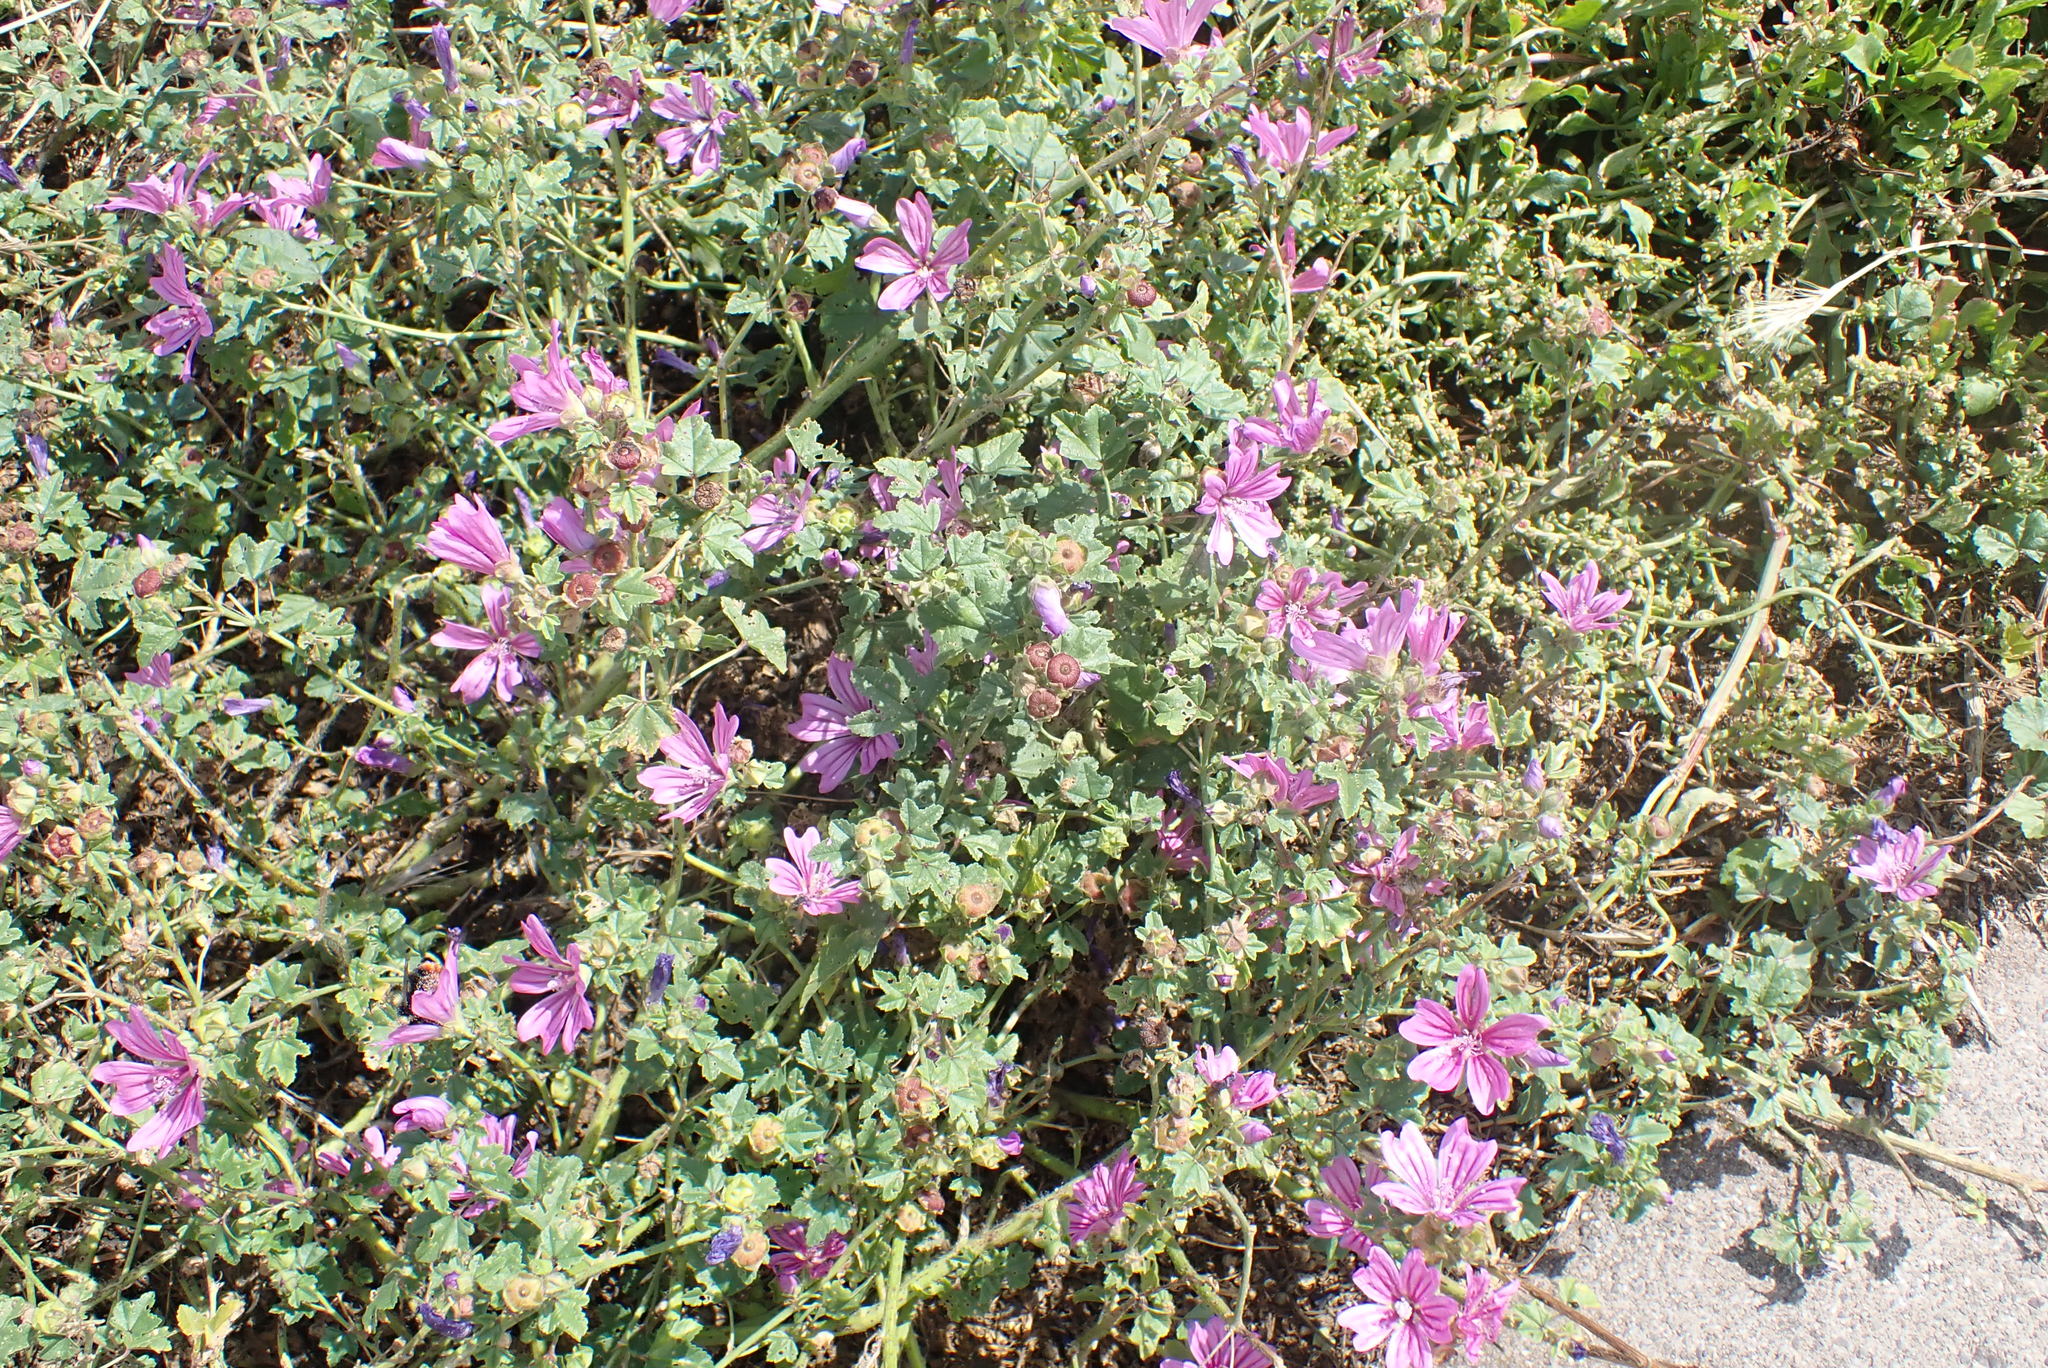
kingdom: Plantae
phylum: Tracheophyta
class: Magnoliopsida
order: Malvales
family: Malvaceae
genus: Malva
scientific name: Malva sylvestris
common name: Common mallow
